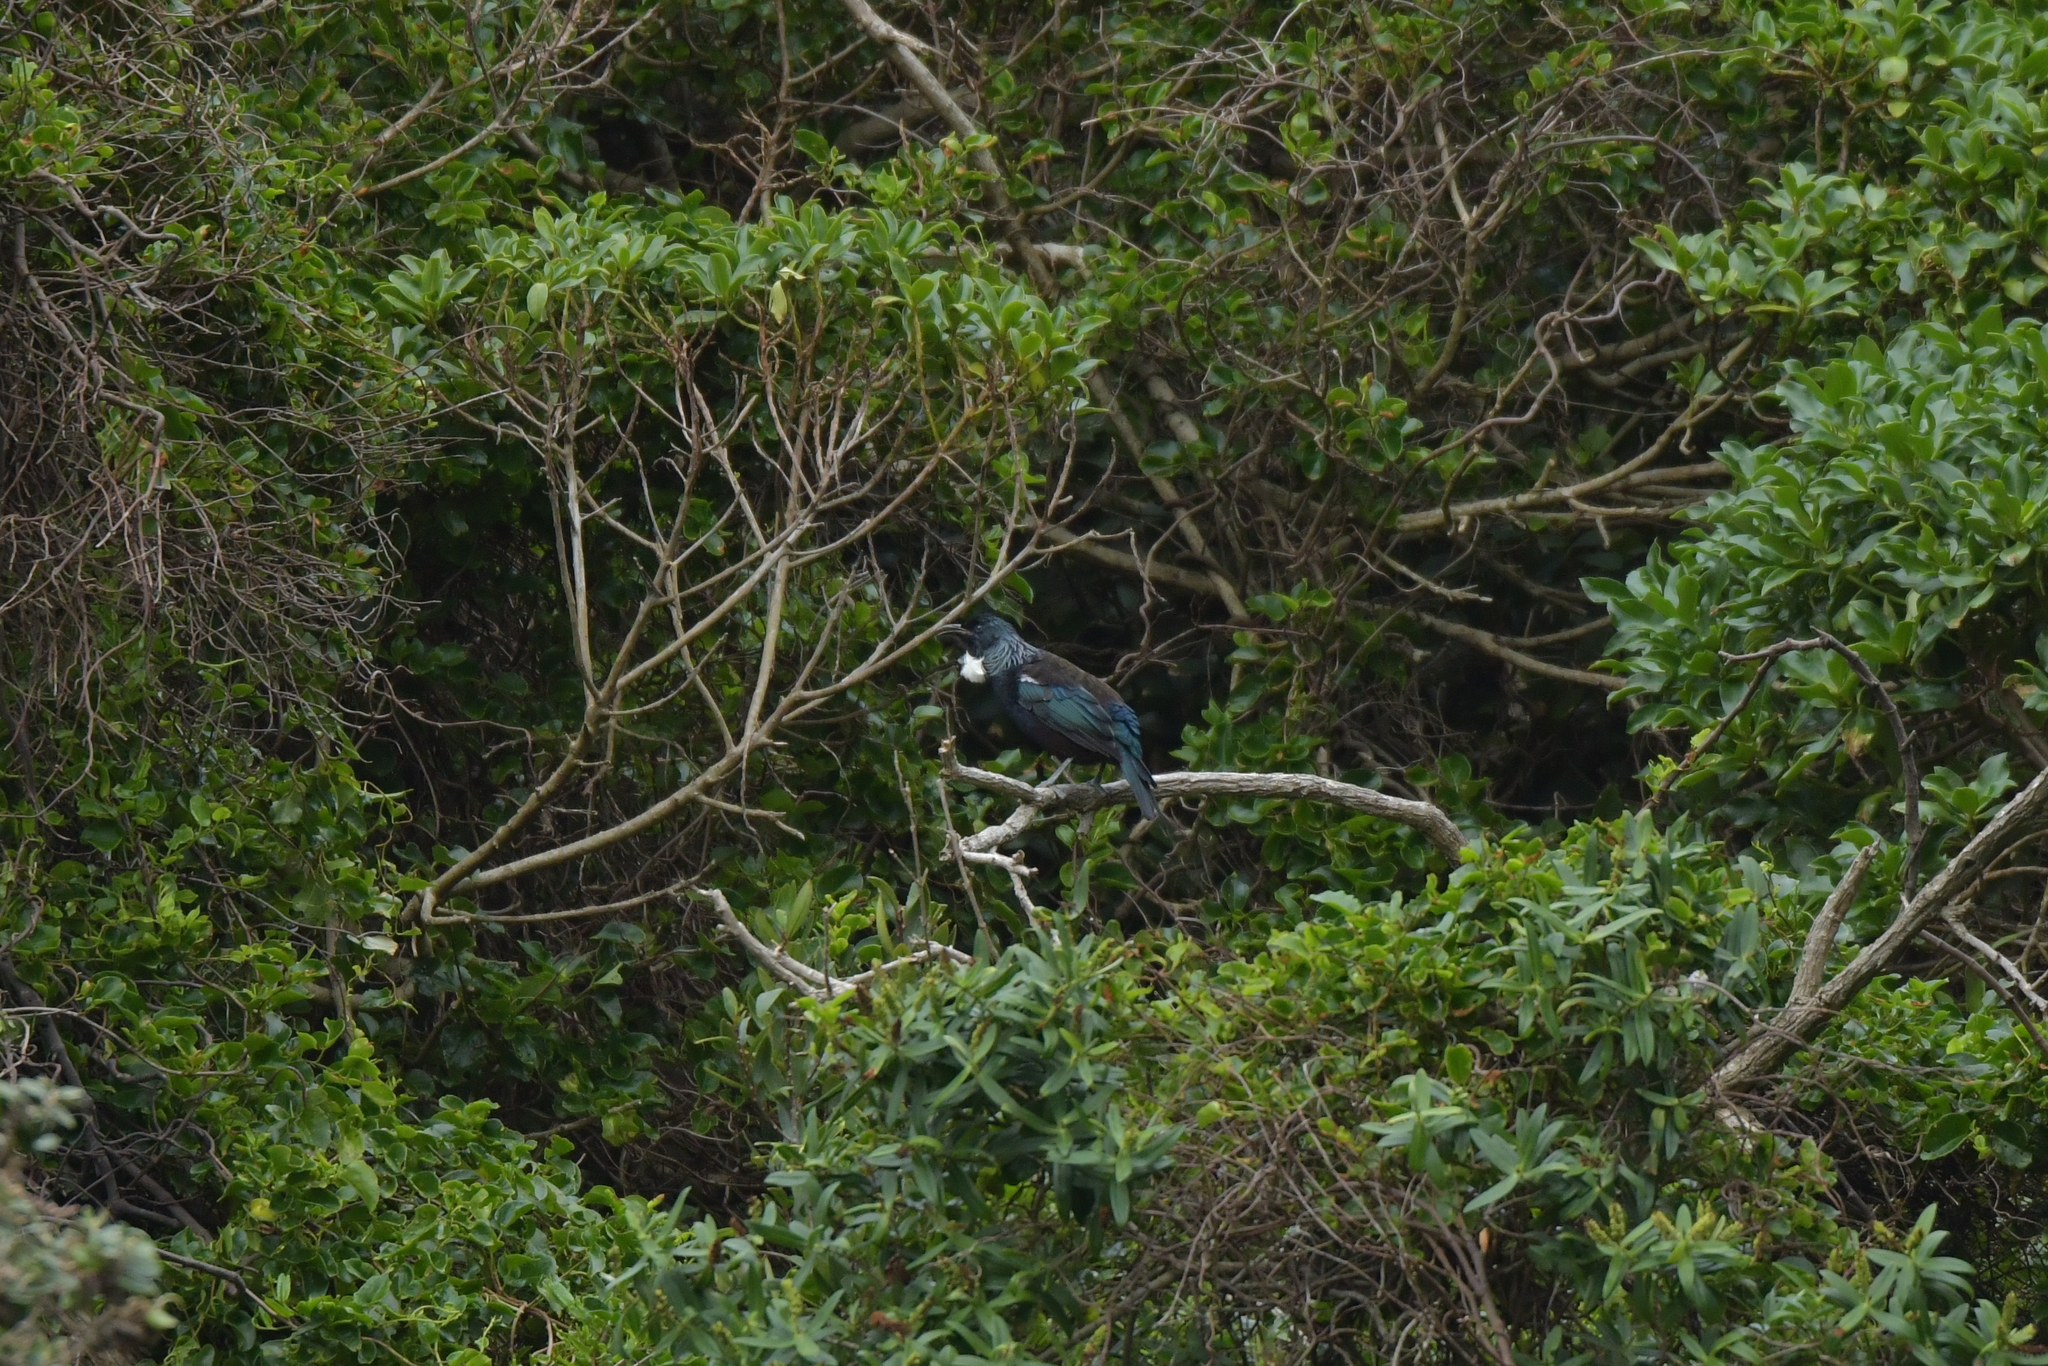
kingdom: Animalia
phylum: Chordata
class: Aves
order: Passeriformes
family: Meliphagidae
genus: Prosthemadera
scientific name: Prosthemadera novaeseelandiae
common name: Tui
